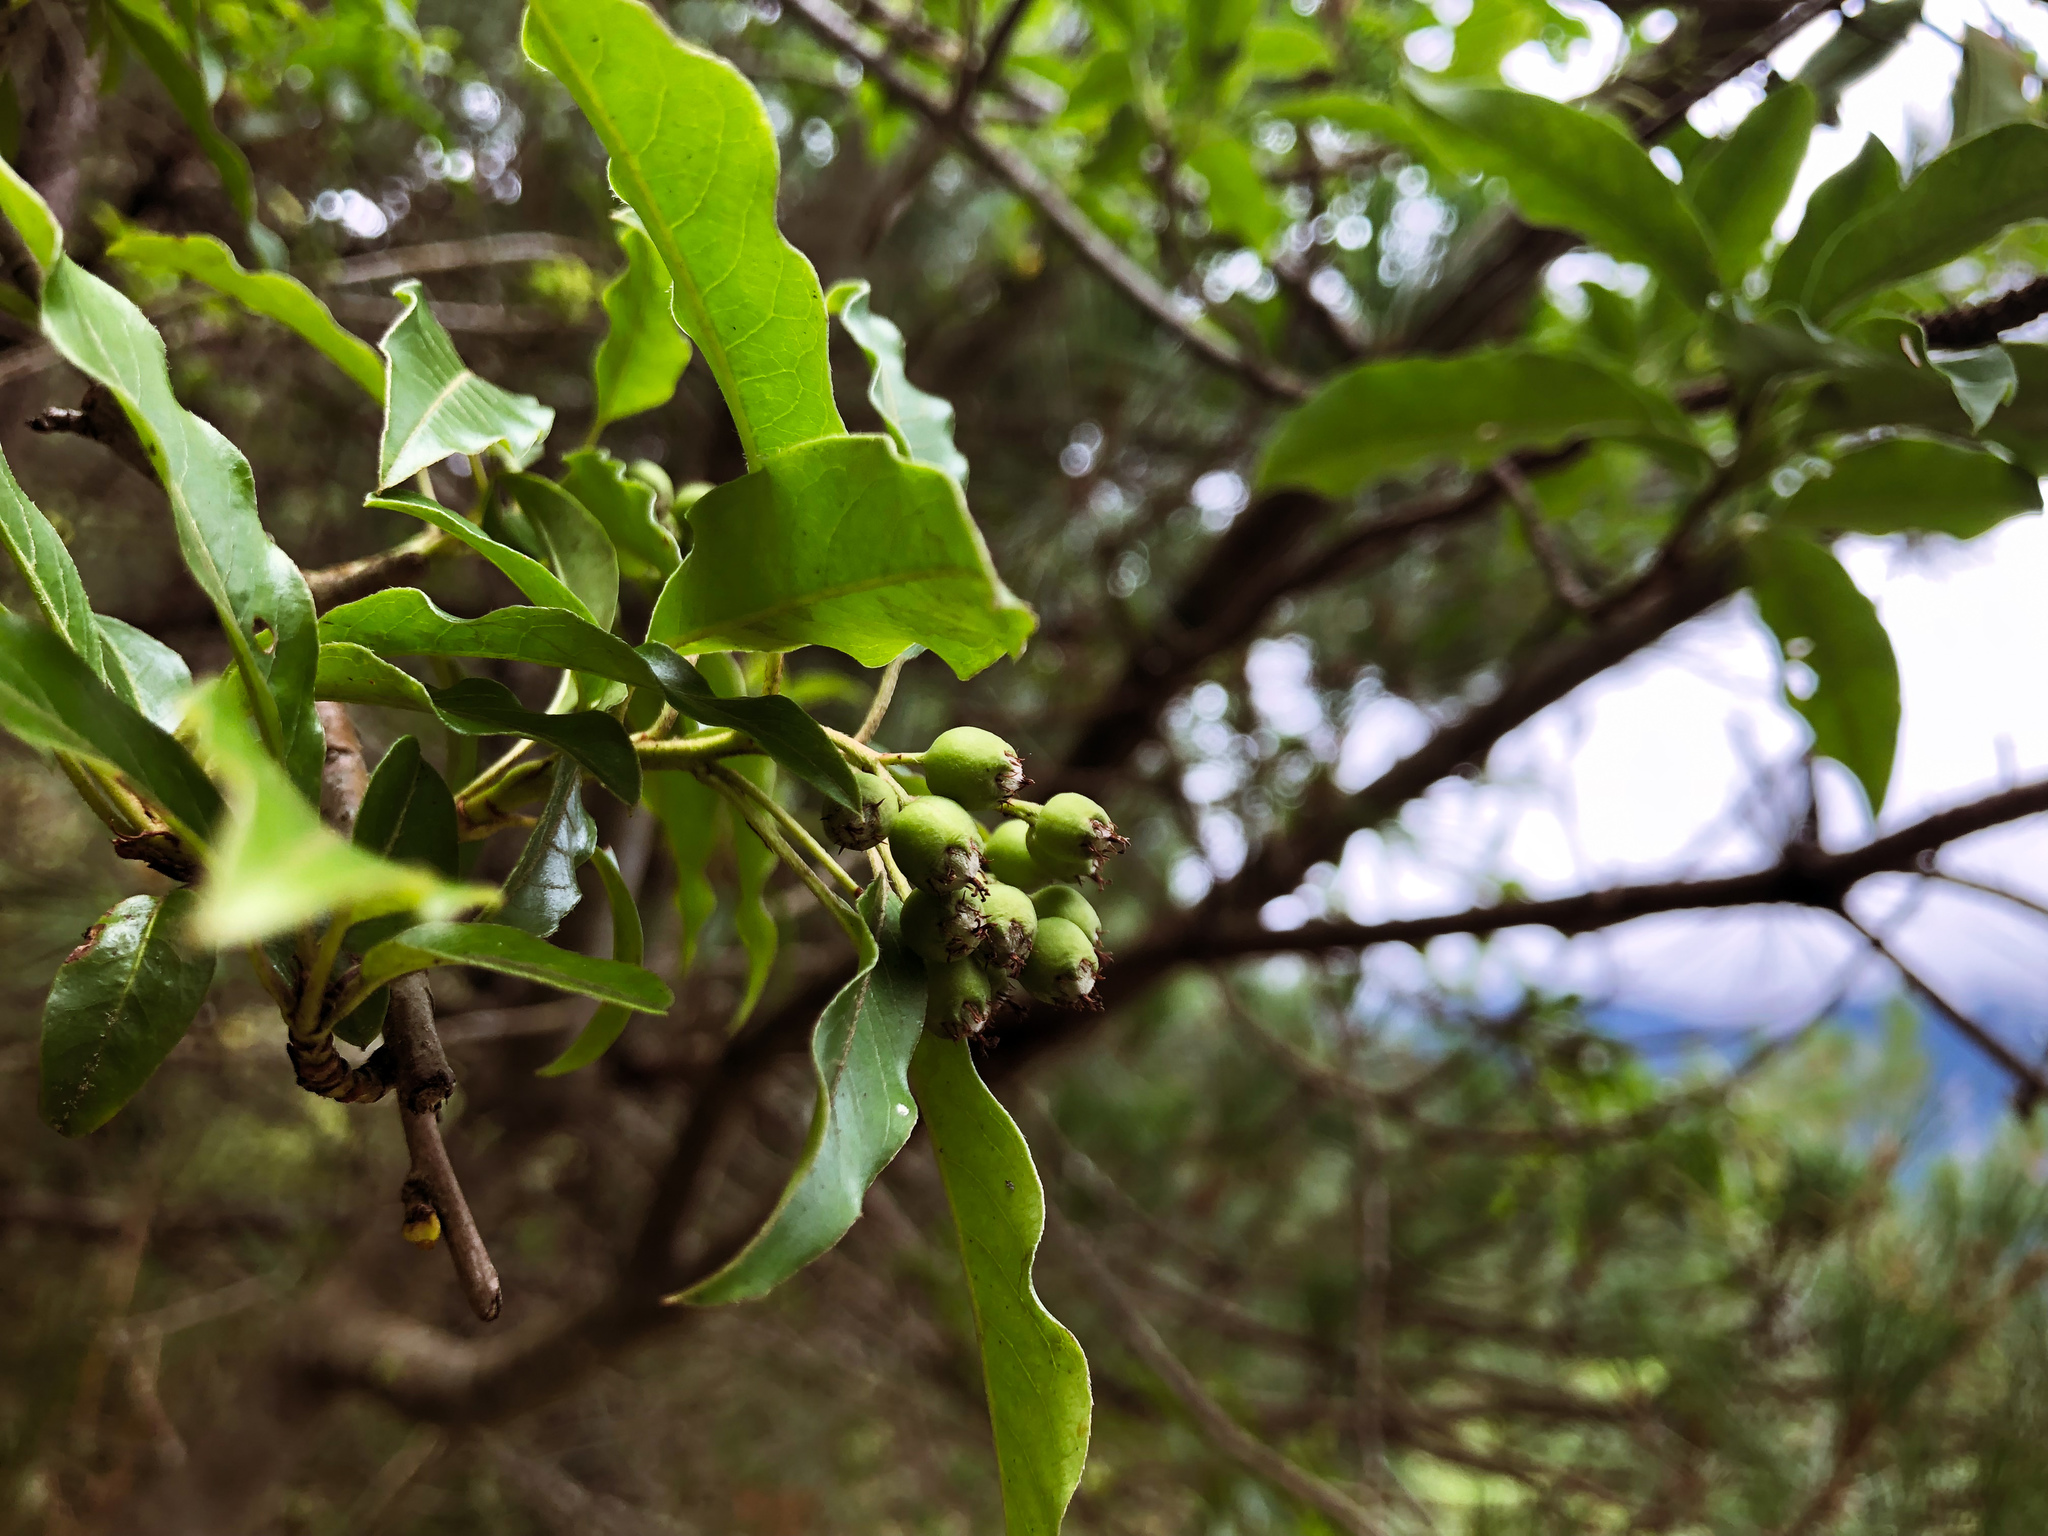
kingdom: Plantae
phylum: Tracheophyta
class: Magnoliopsida
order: Rosales
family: Rosaceae
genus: Stranvaesia
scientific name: Stranvaesia davidiana
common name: Chinese photinia
